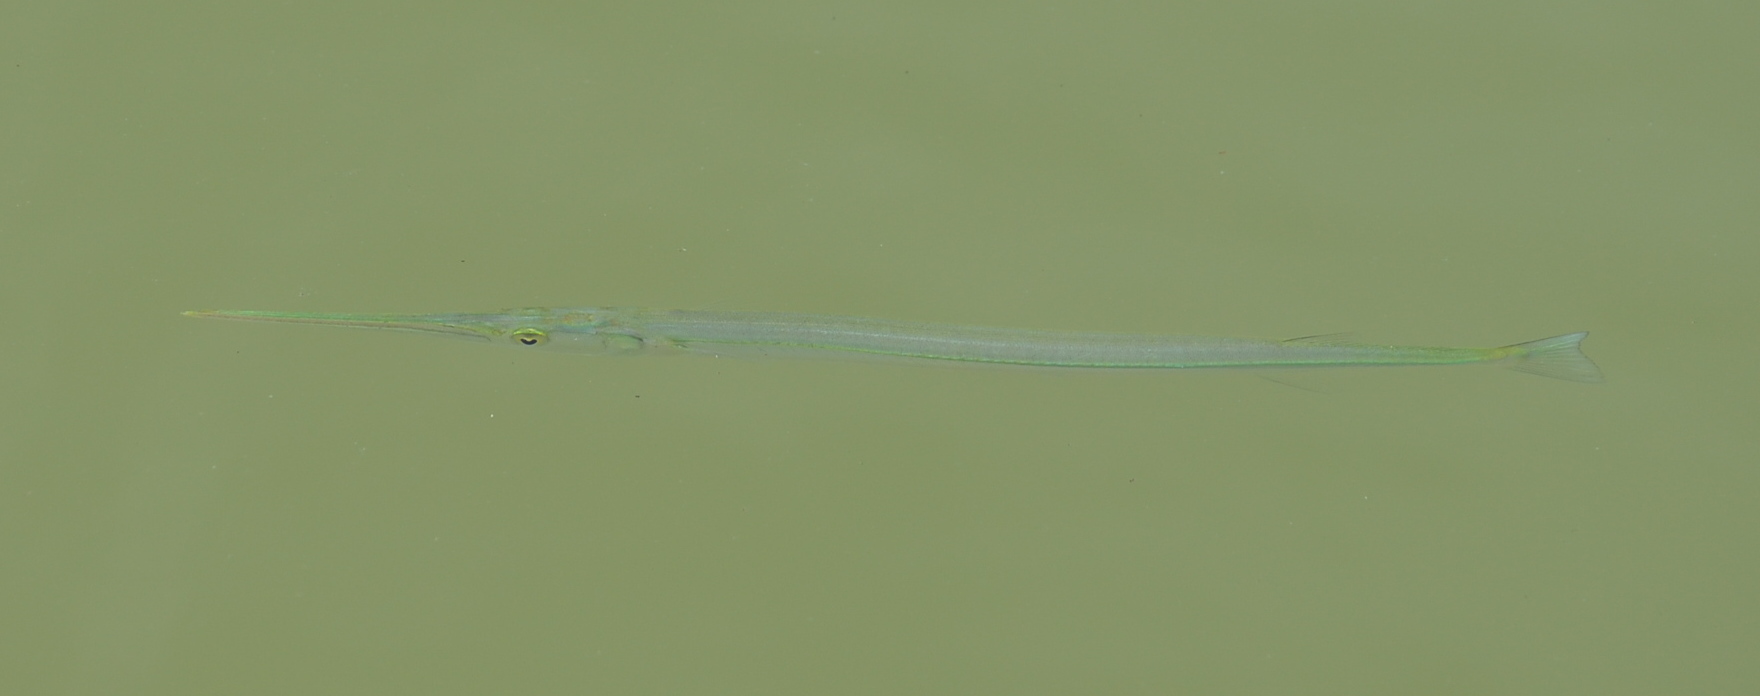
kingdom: Animalia
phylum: Chordata
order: Beloniformes
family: Belonidae
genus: Strongylura
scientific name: Strongylura
